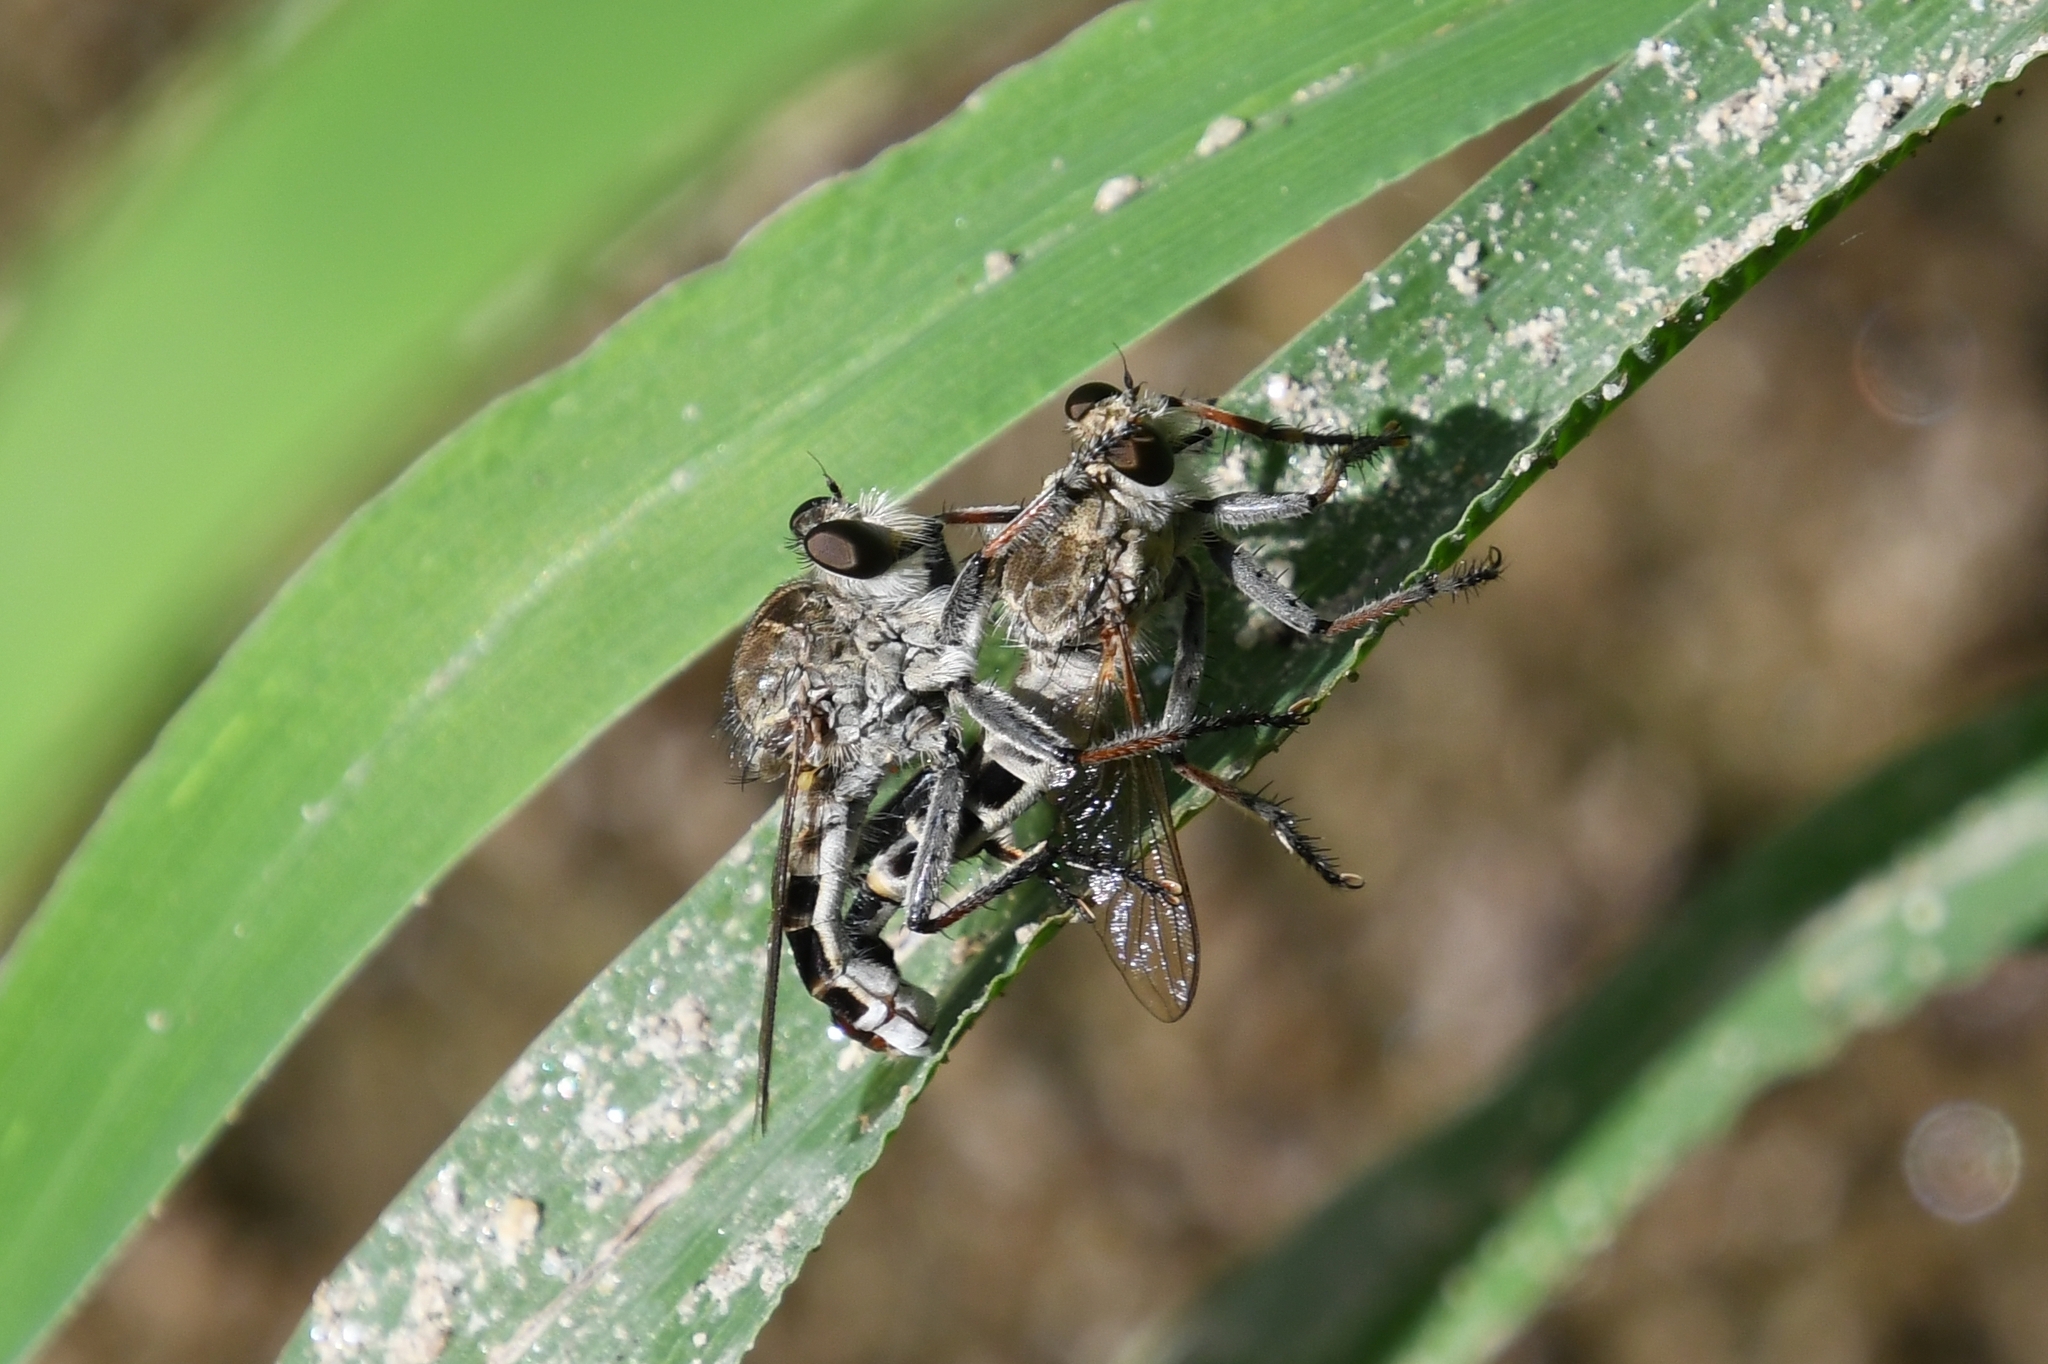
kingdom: Animalia
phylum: Arthropoda
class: Insecta
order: Diptera
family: Asilidae
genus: Efferia
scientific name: Efferia albibarbis
